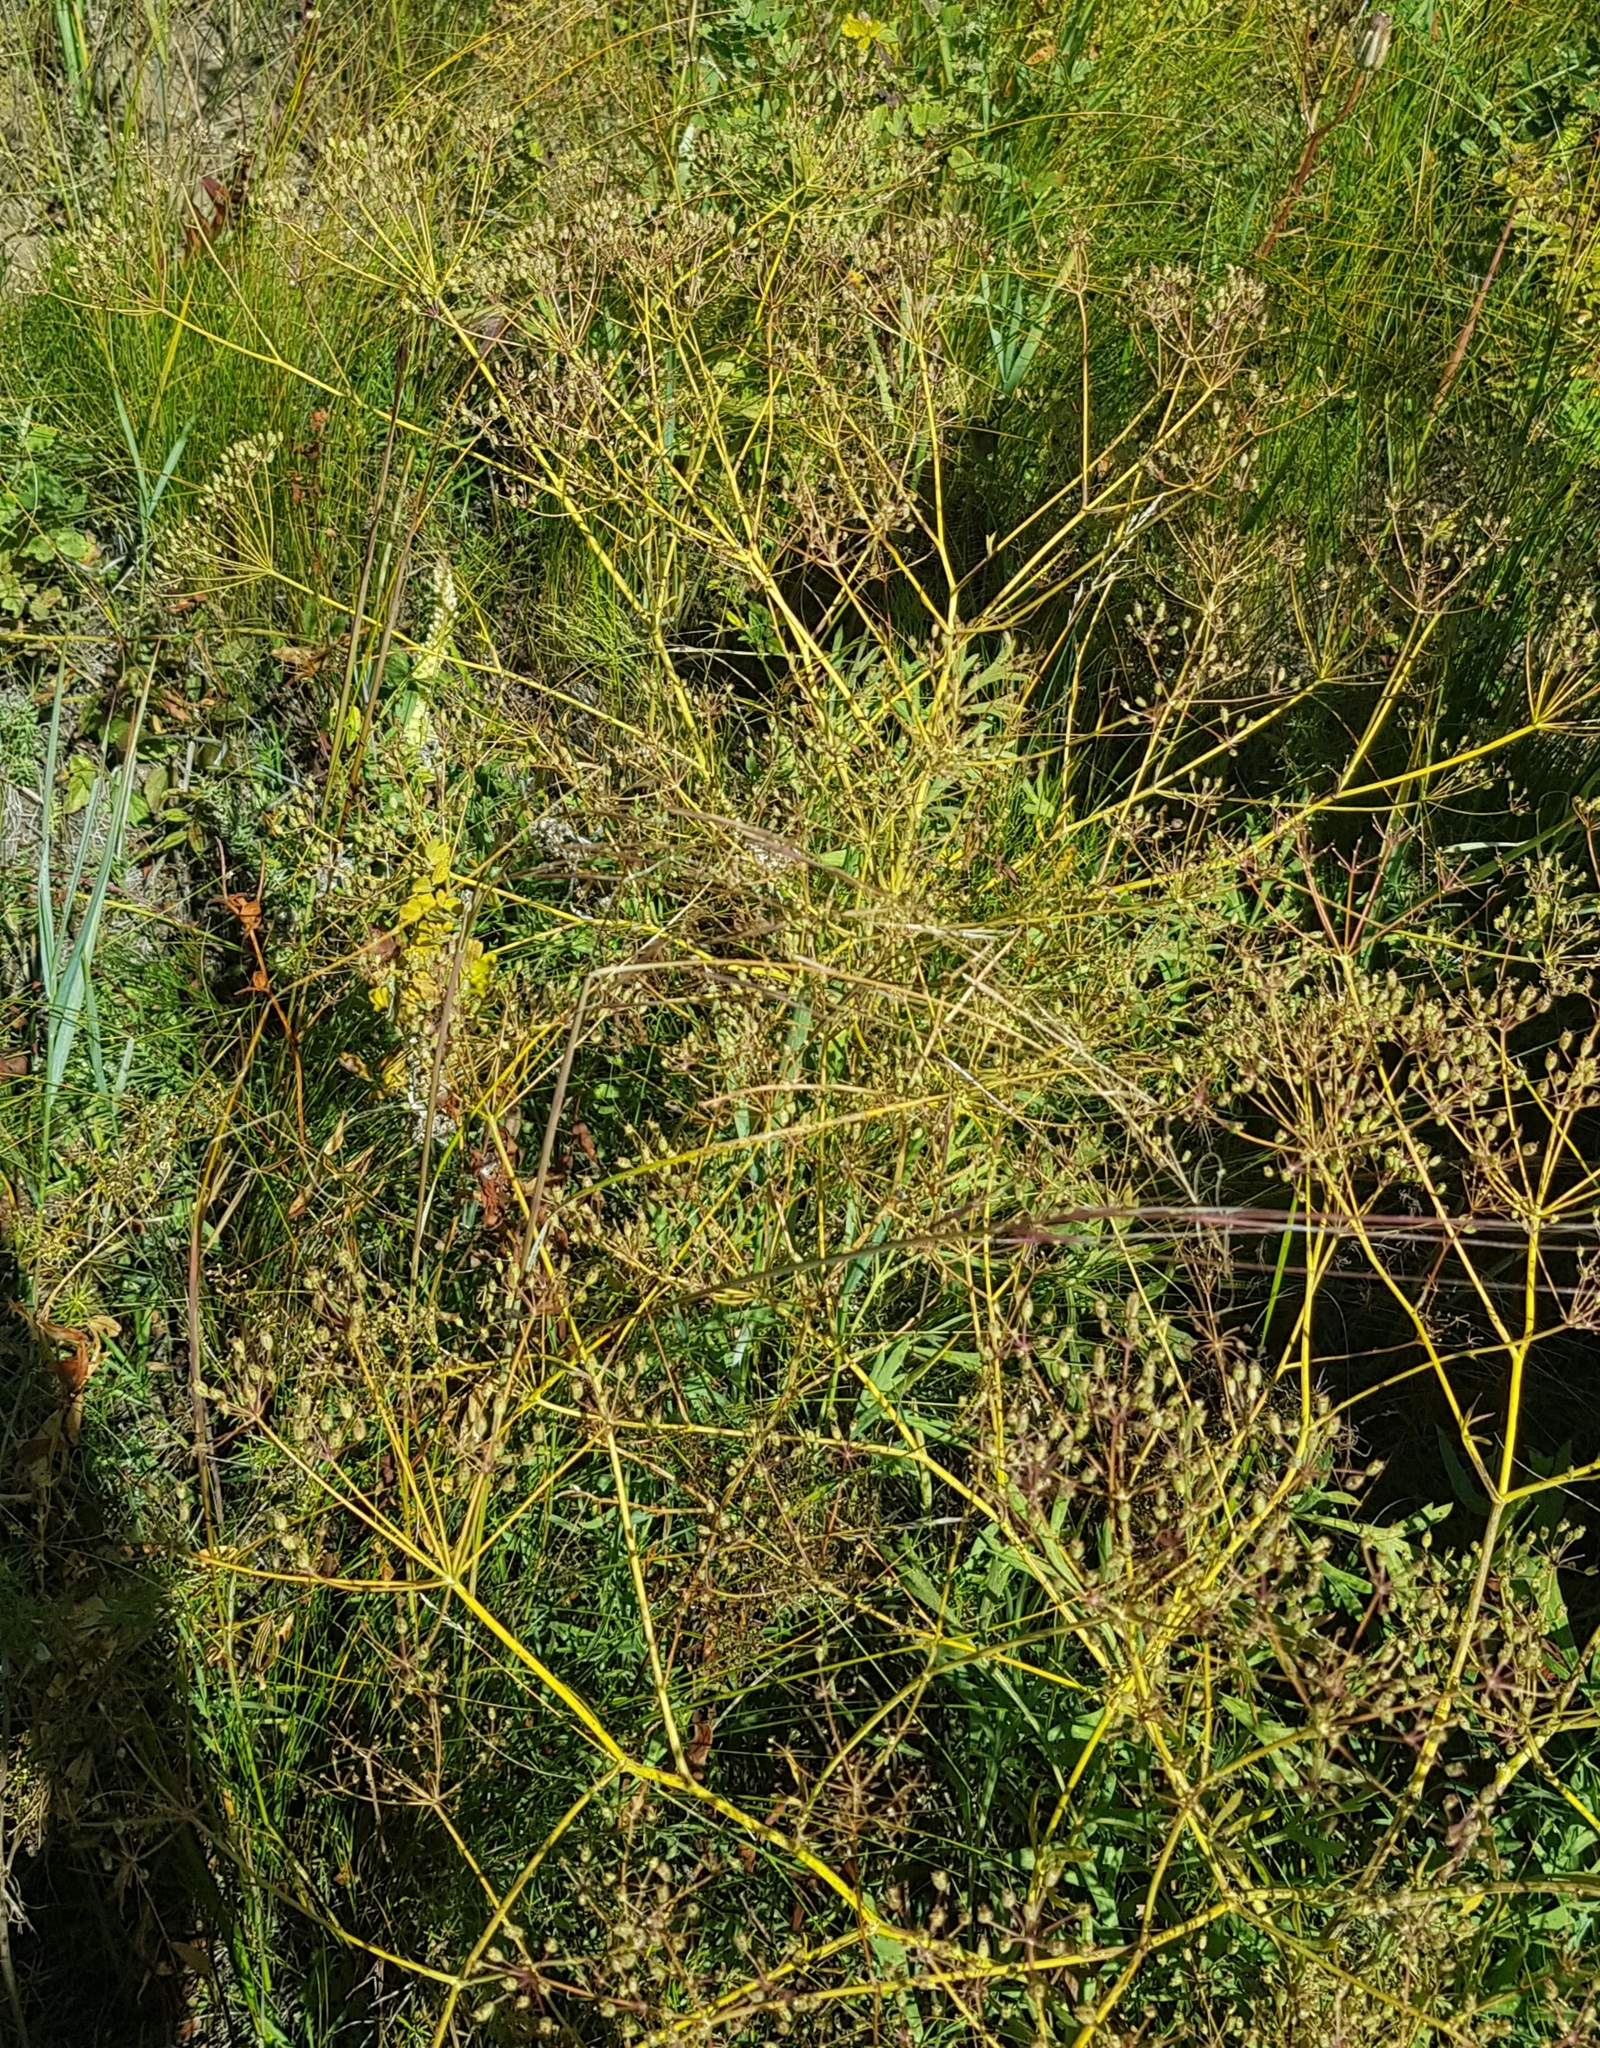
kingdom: Plantae
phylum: Tracheophyta
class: Magnoliopsida
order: Apiales
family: Apiaceae
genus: Saposhnikovia
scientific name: Saposhnikovia divaricata
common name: Siler
